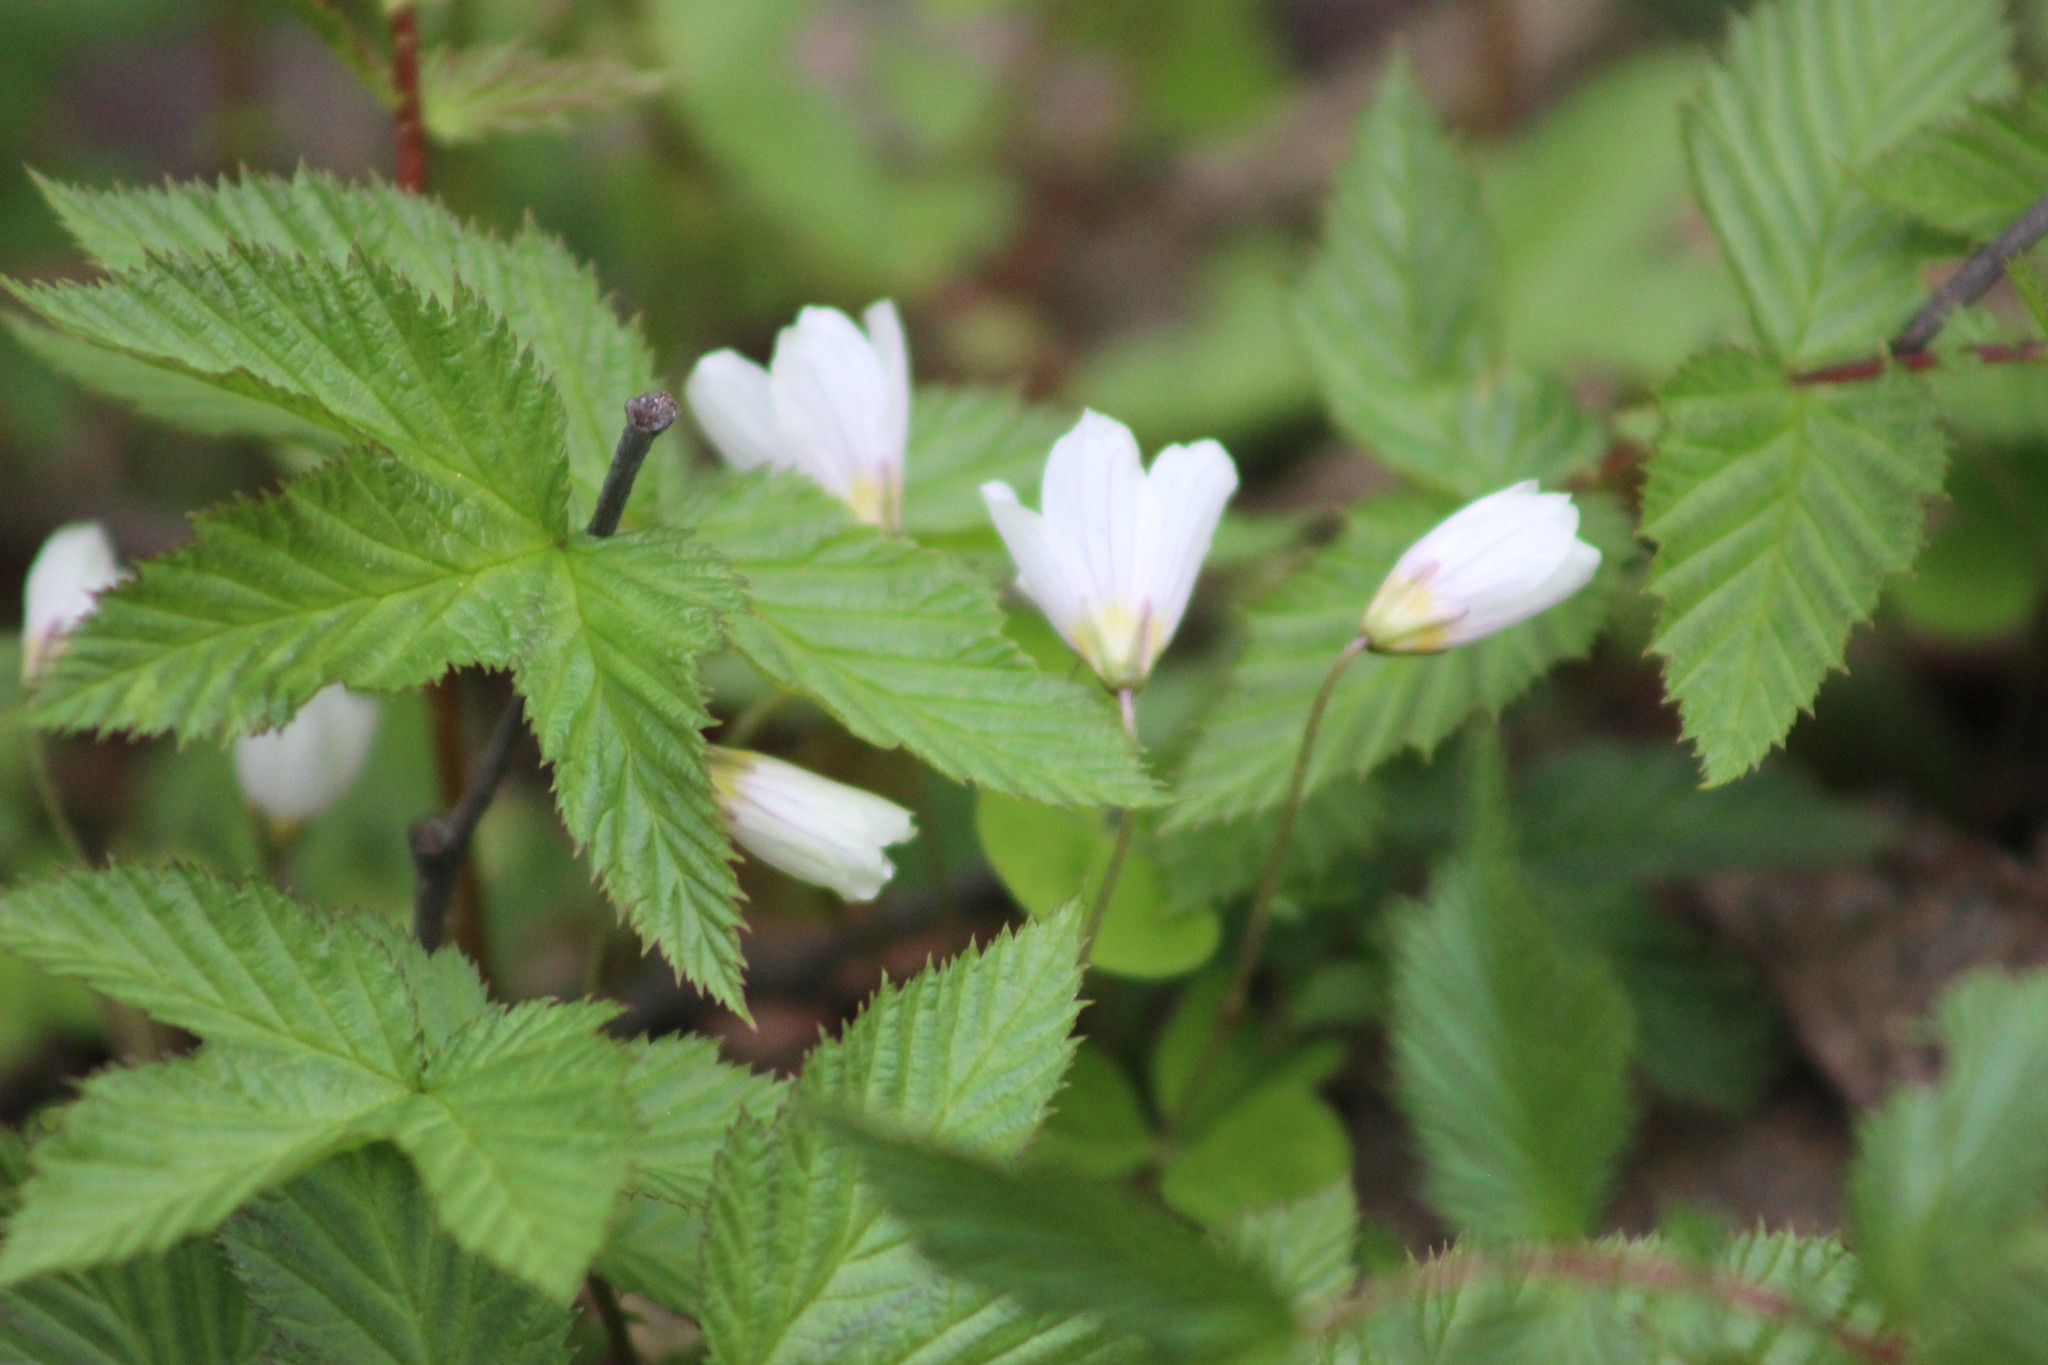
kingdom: Plantae
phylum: Tracheophyta
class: Magnoliopsida
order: Oxalidales
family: Oxalidaceae
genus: Oxalis
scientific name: Oxalis acetosella
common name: Wood-sorrel
